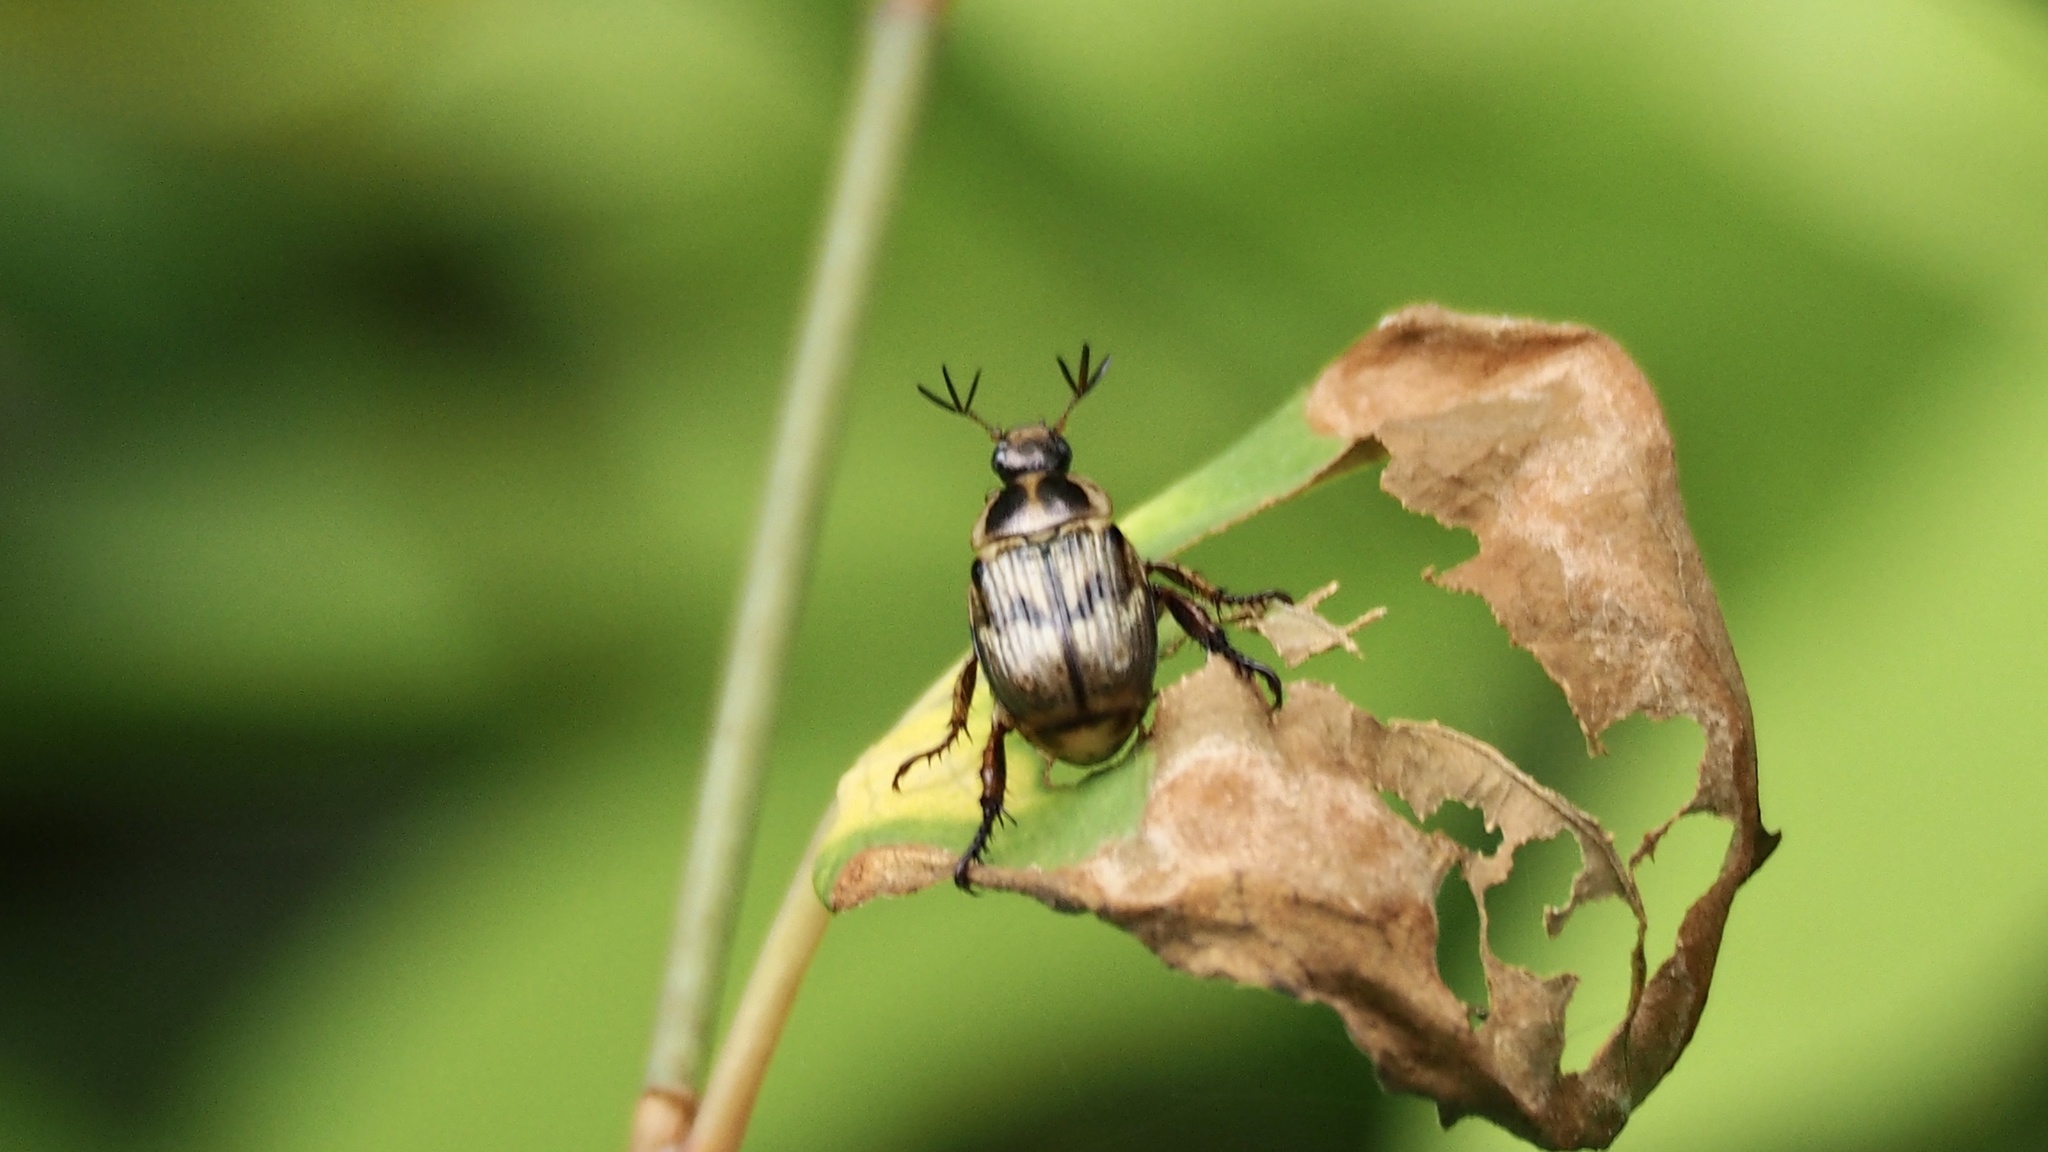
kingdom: Animalia
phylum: Arthropoda
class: Insecta
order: Coleoptera
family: Scarabaeidae
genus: Exomala
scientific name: Exomala orientalis
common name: Oriental beetle
